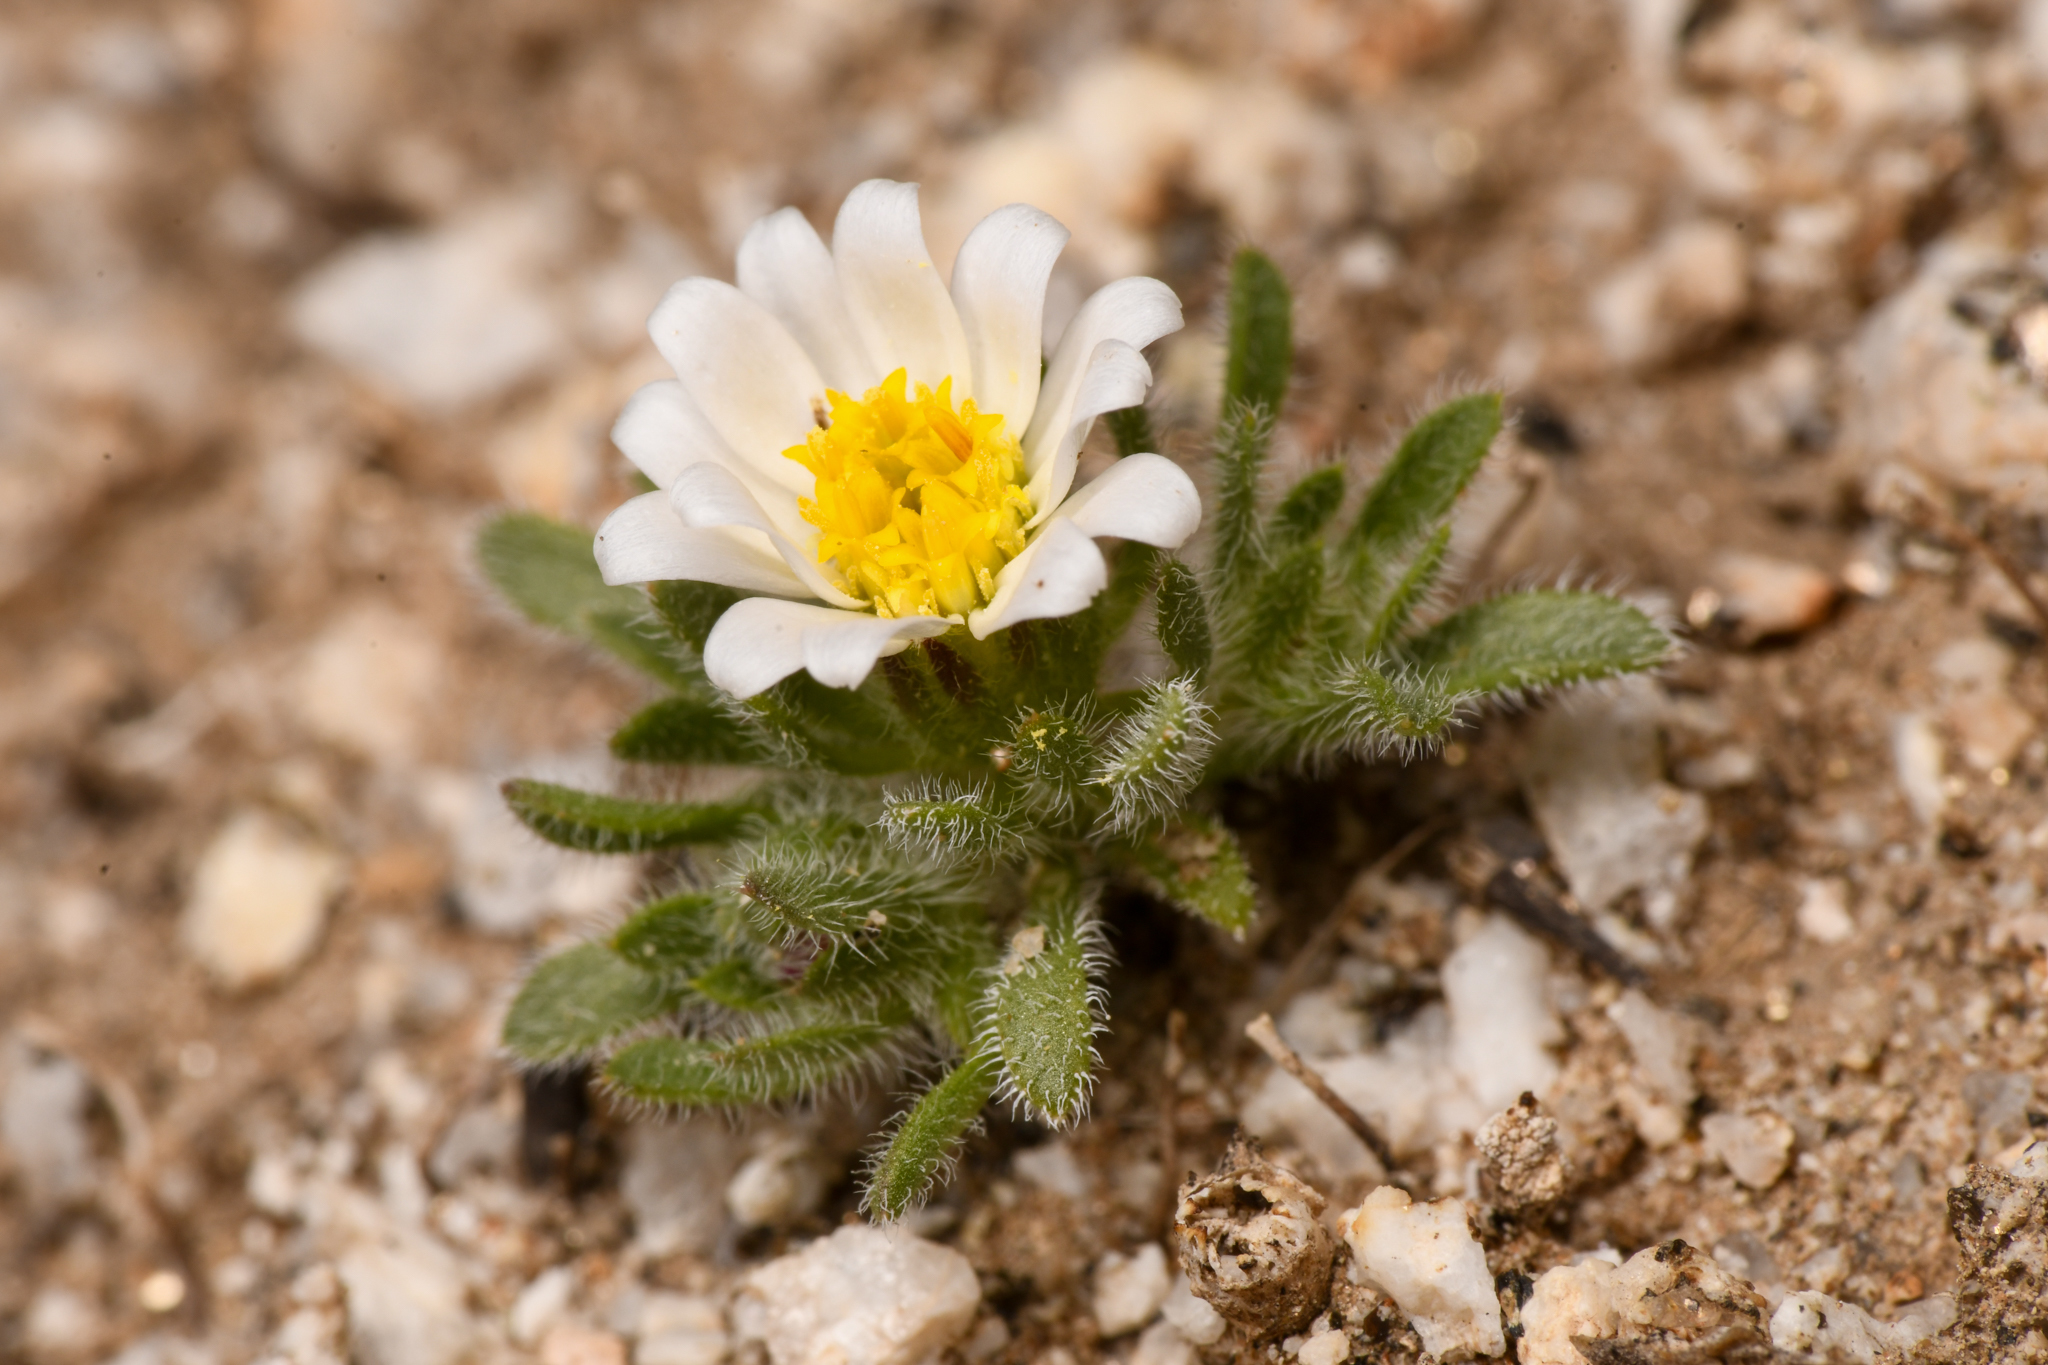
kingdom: Plantae
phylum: Tracheophyta
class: Magnoliopsida
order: Asterales
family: Asteraceae
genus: Monoptilon
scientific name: Monoptilon bellioides
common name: Bristly desertstar
